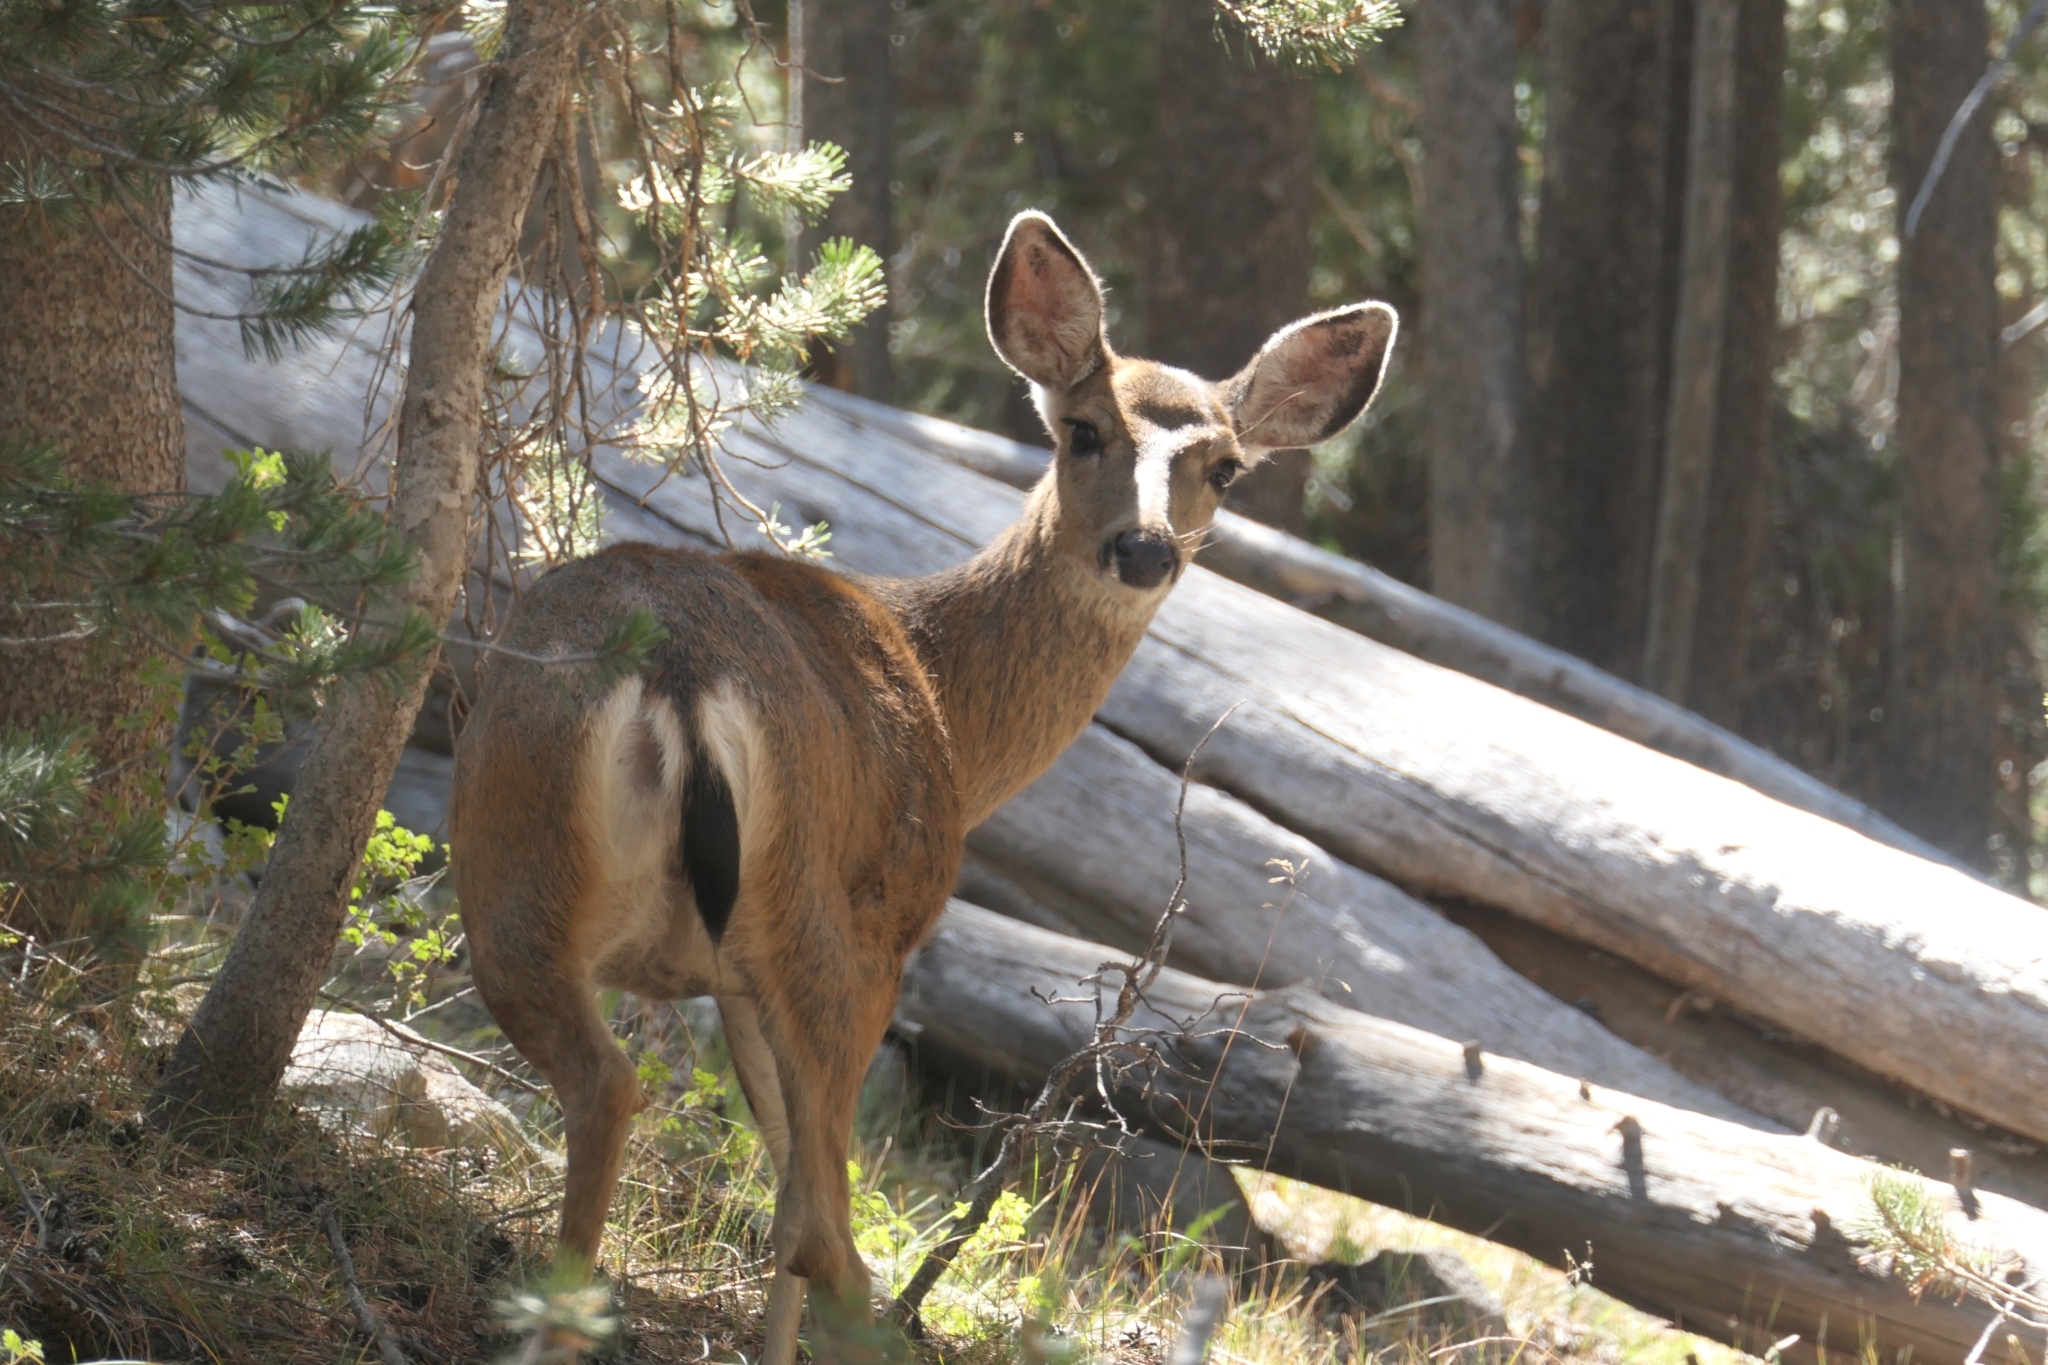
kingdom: Animalia
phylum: Chordata
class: Mammalia
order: Artiodactyla
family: Cervidae
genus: Odocoileus
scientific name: Odocoileus hemionus
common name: Mule deer
